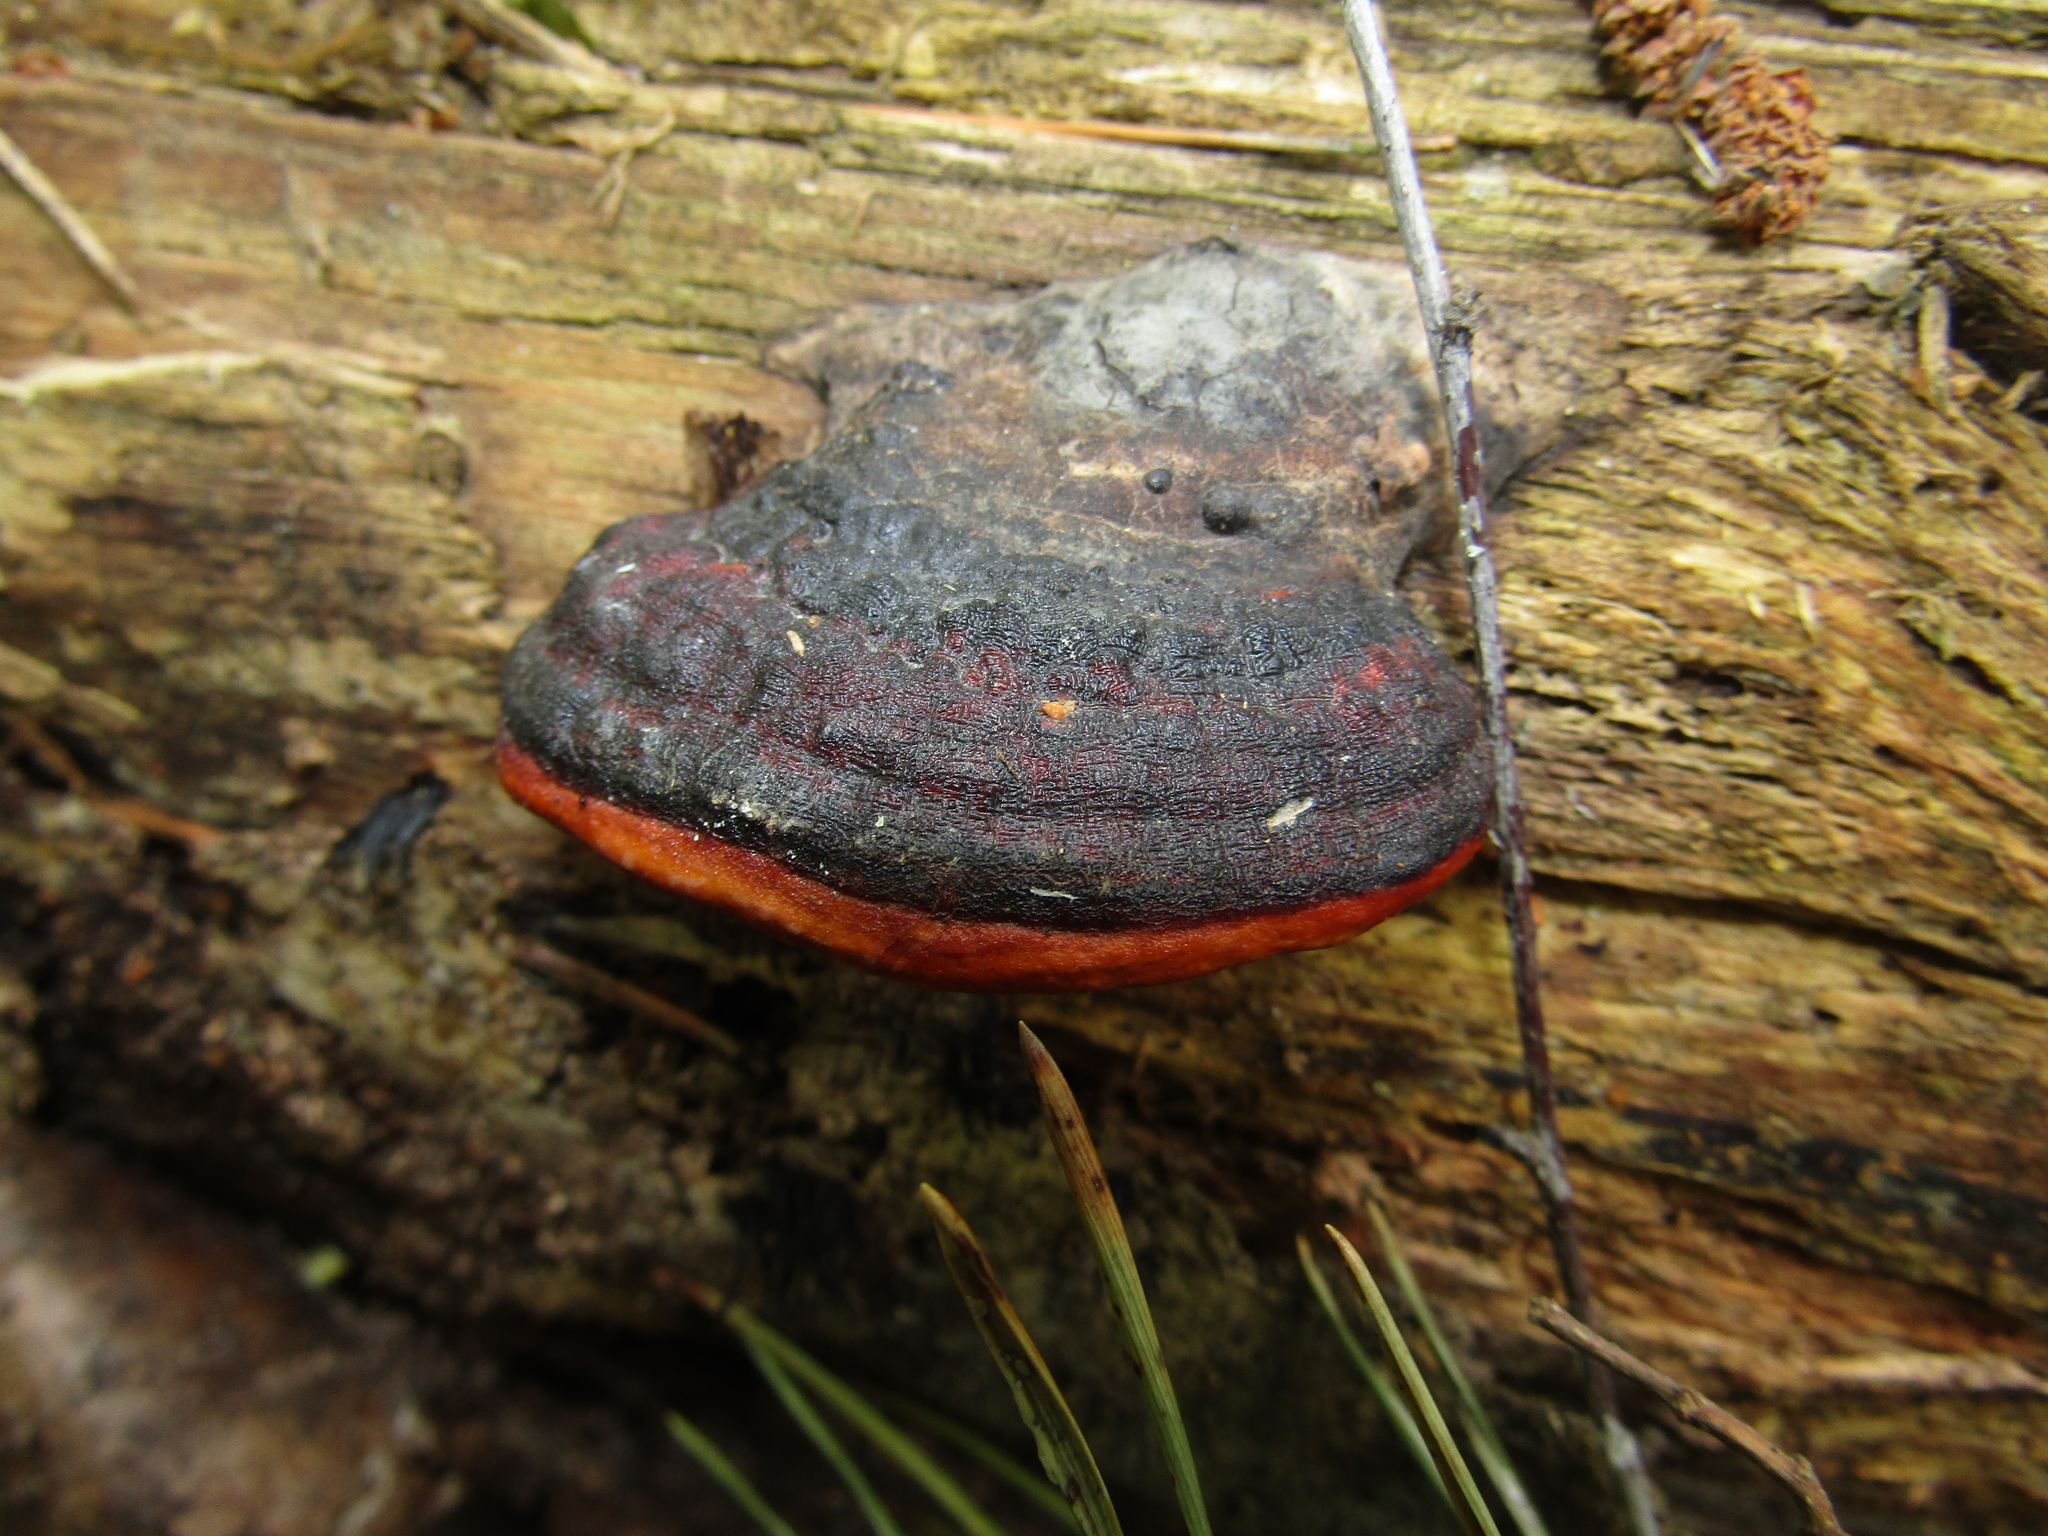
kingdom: Fungi
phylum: Basidiomycota
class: Agaricomycetes
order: Polyporales
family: Fomitopsidaceae
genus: Fomitopsis
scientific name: Fomitopsis pinicola
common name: Red-belted bracket
